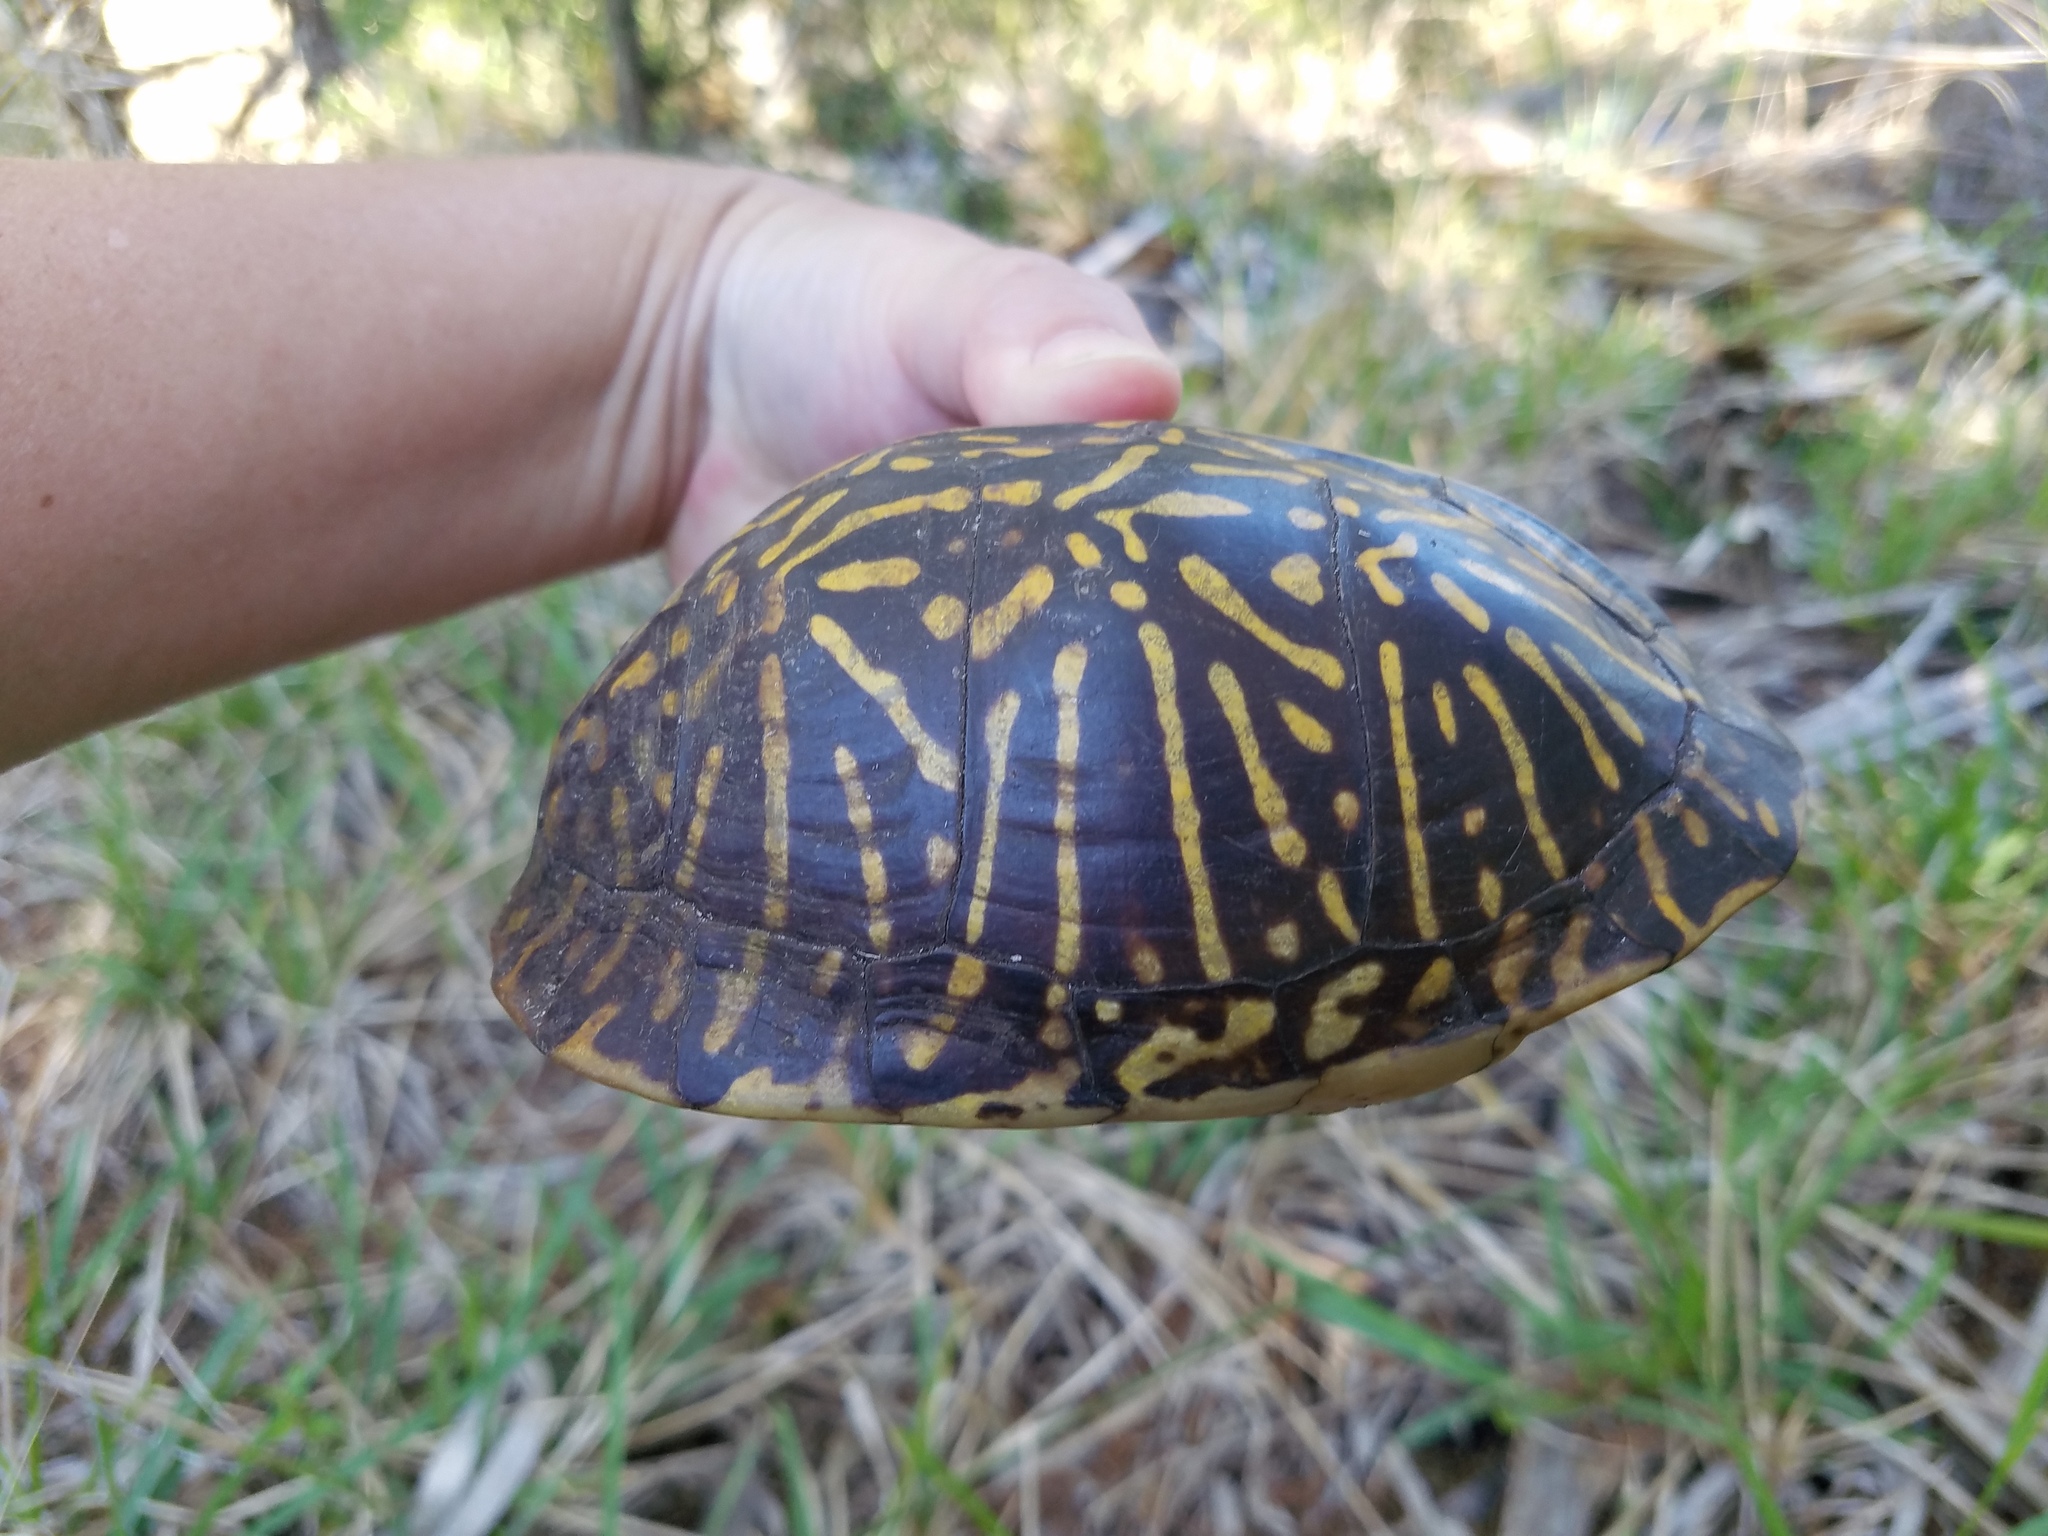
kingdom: Animalia
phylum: Chordata
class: Testudines
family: Emydidae
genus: Terrapene
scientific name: Terrapene carolina
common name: Common box turtle
